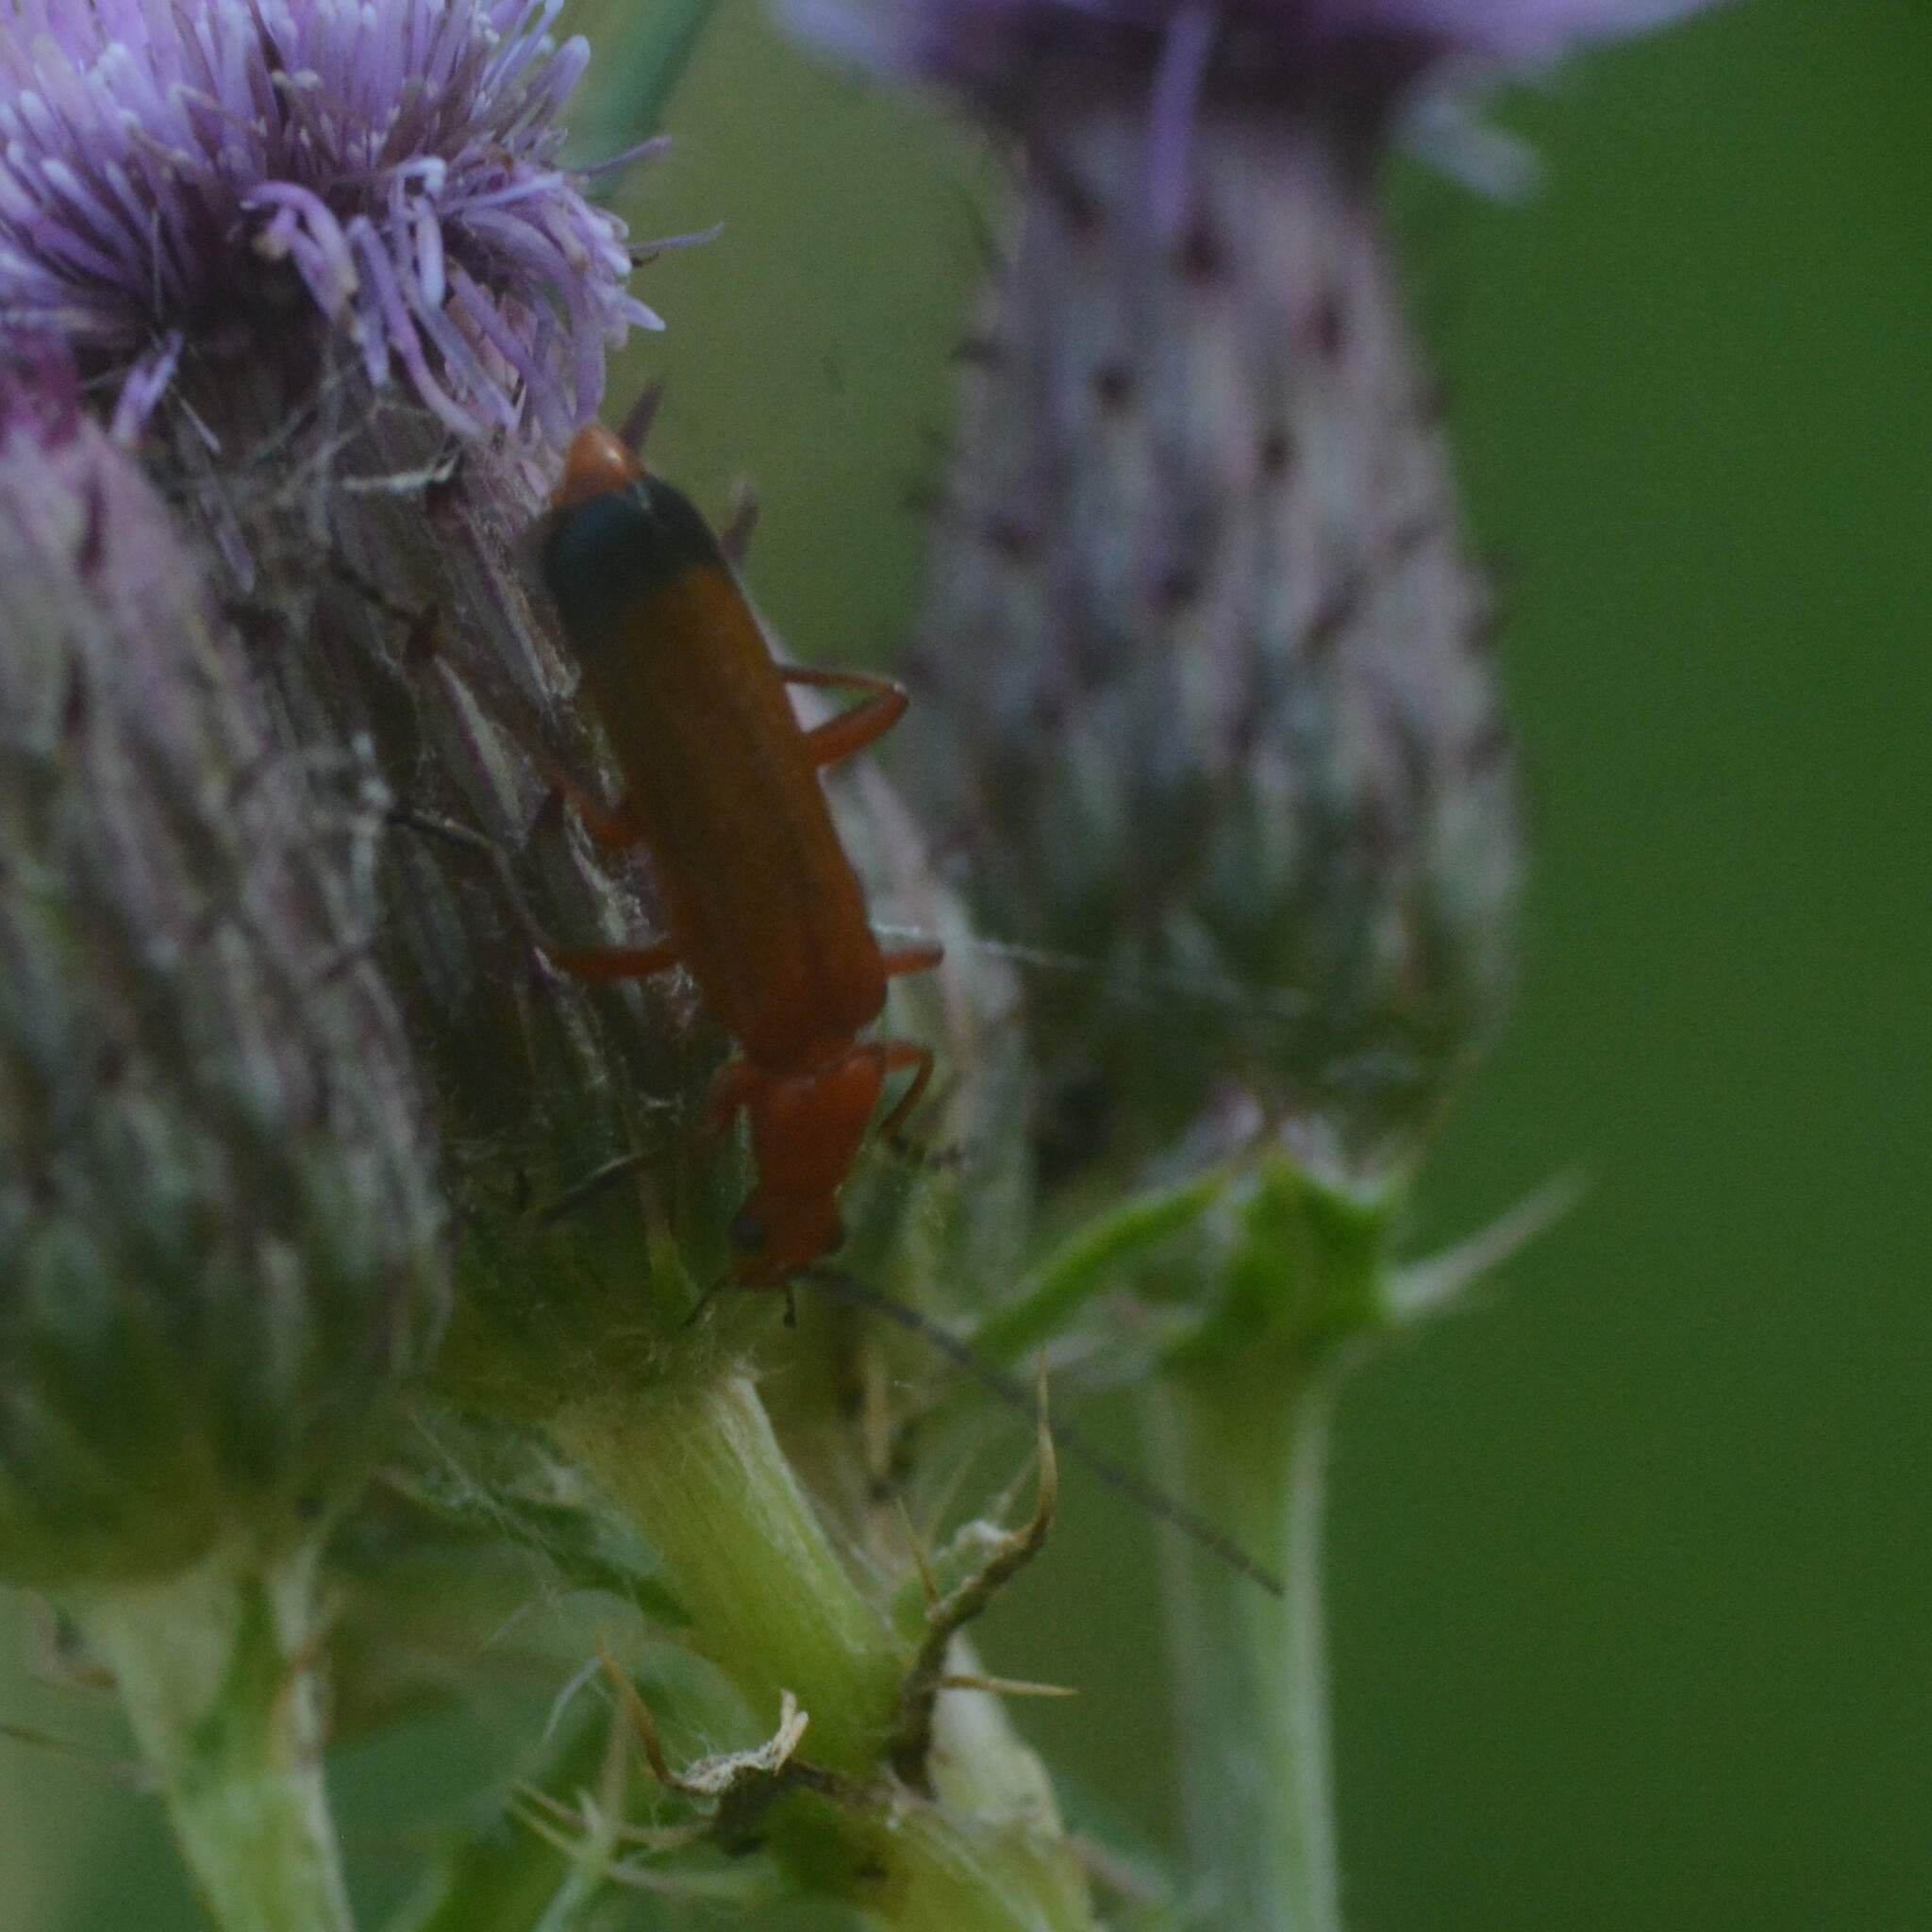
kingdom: Animalia
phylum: Arthropoda
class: Insecta
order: Coleoptera
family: Cantharidae
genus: Rhagonycha
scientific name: Rhagonycha fulva
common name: Common red soldier beetle
